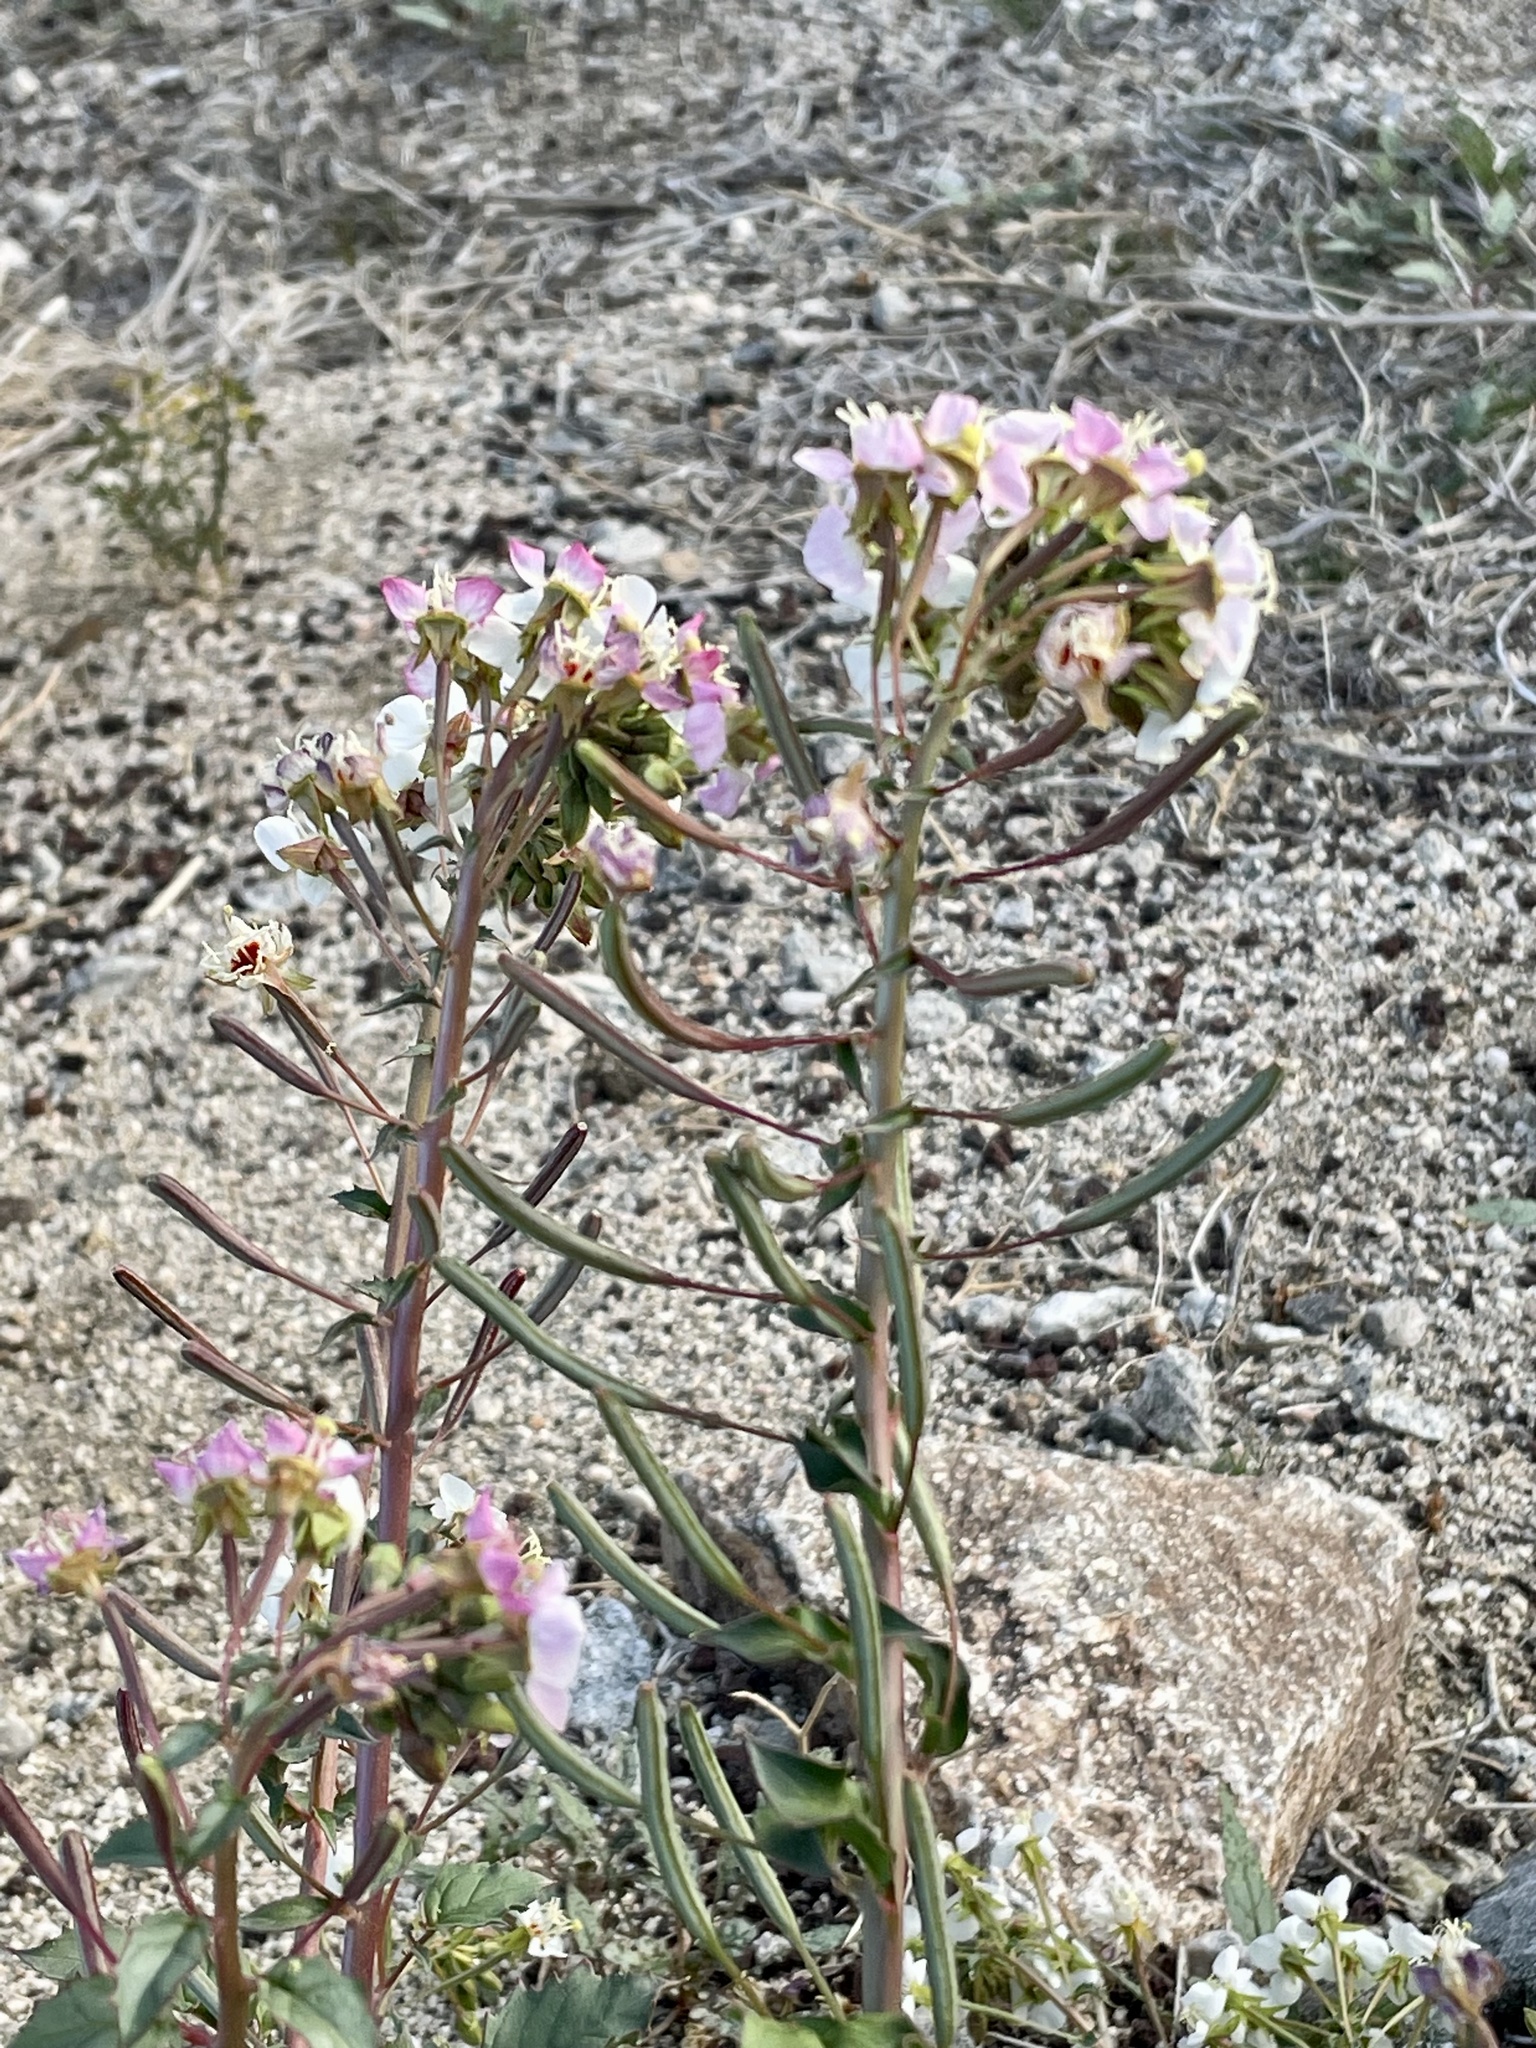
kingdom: Plantae
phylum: Tracheophyta
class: Magnoliopsida
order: Myrtales
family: Onagraceae
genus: Chylismia
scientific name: Chylismia claviformis
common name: Browneyes
